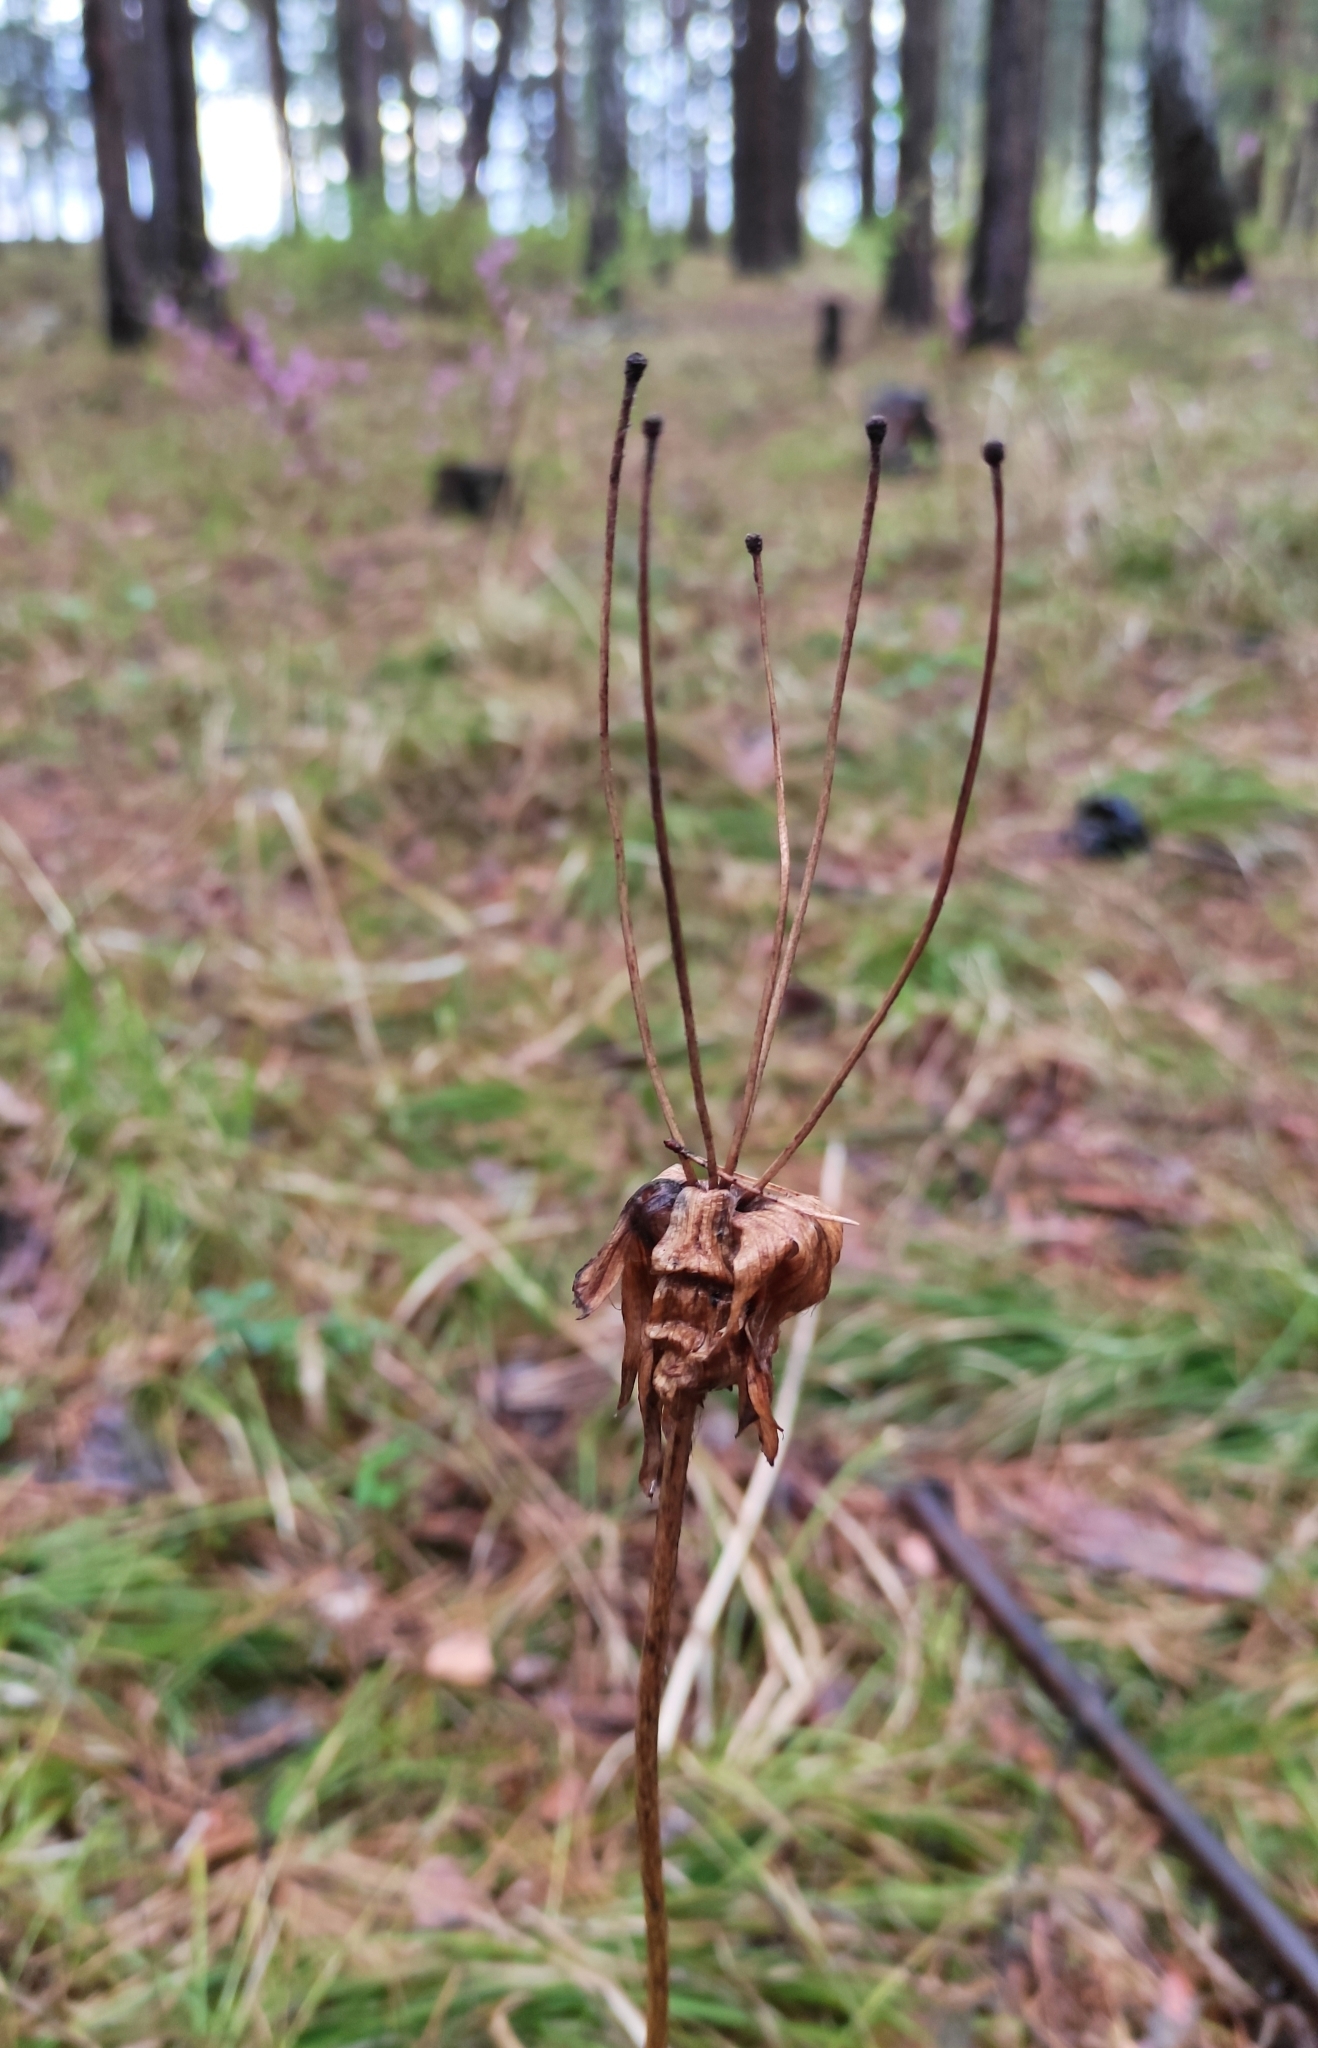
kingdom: Plantae
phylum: Tracheophyta
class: Magnoliopsida
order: Ranunculales
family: Ranunculaceae
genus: Anemonastrum
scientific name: Anemonastrum narcissiflorum
